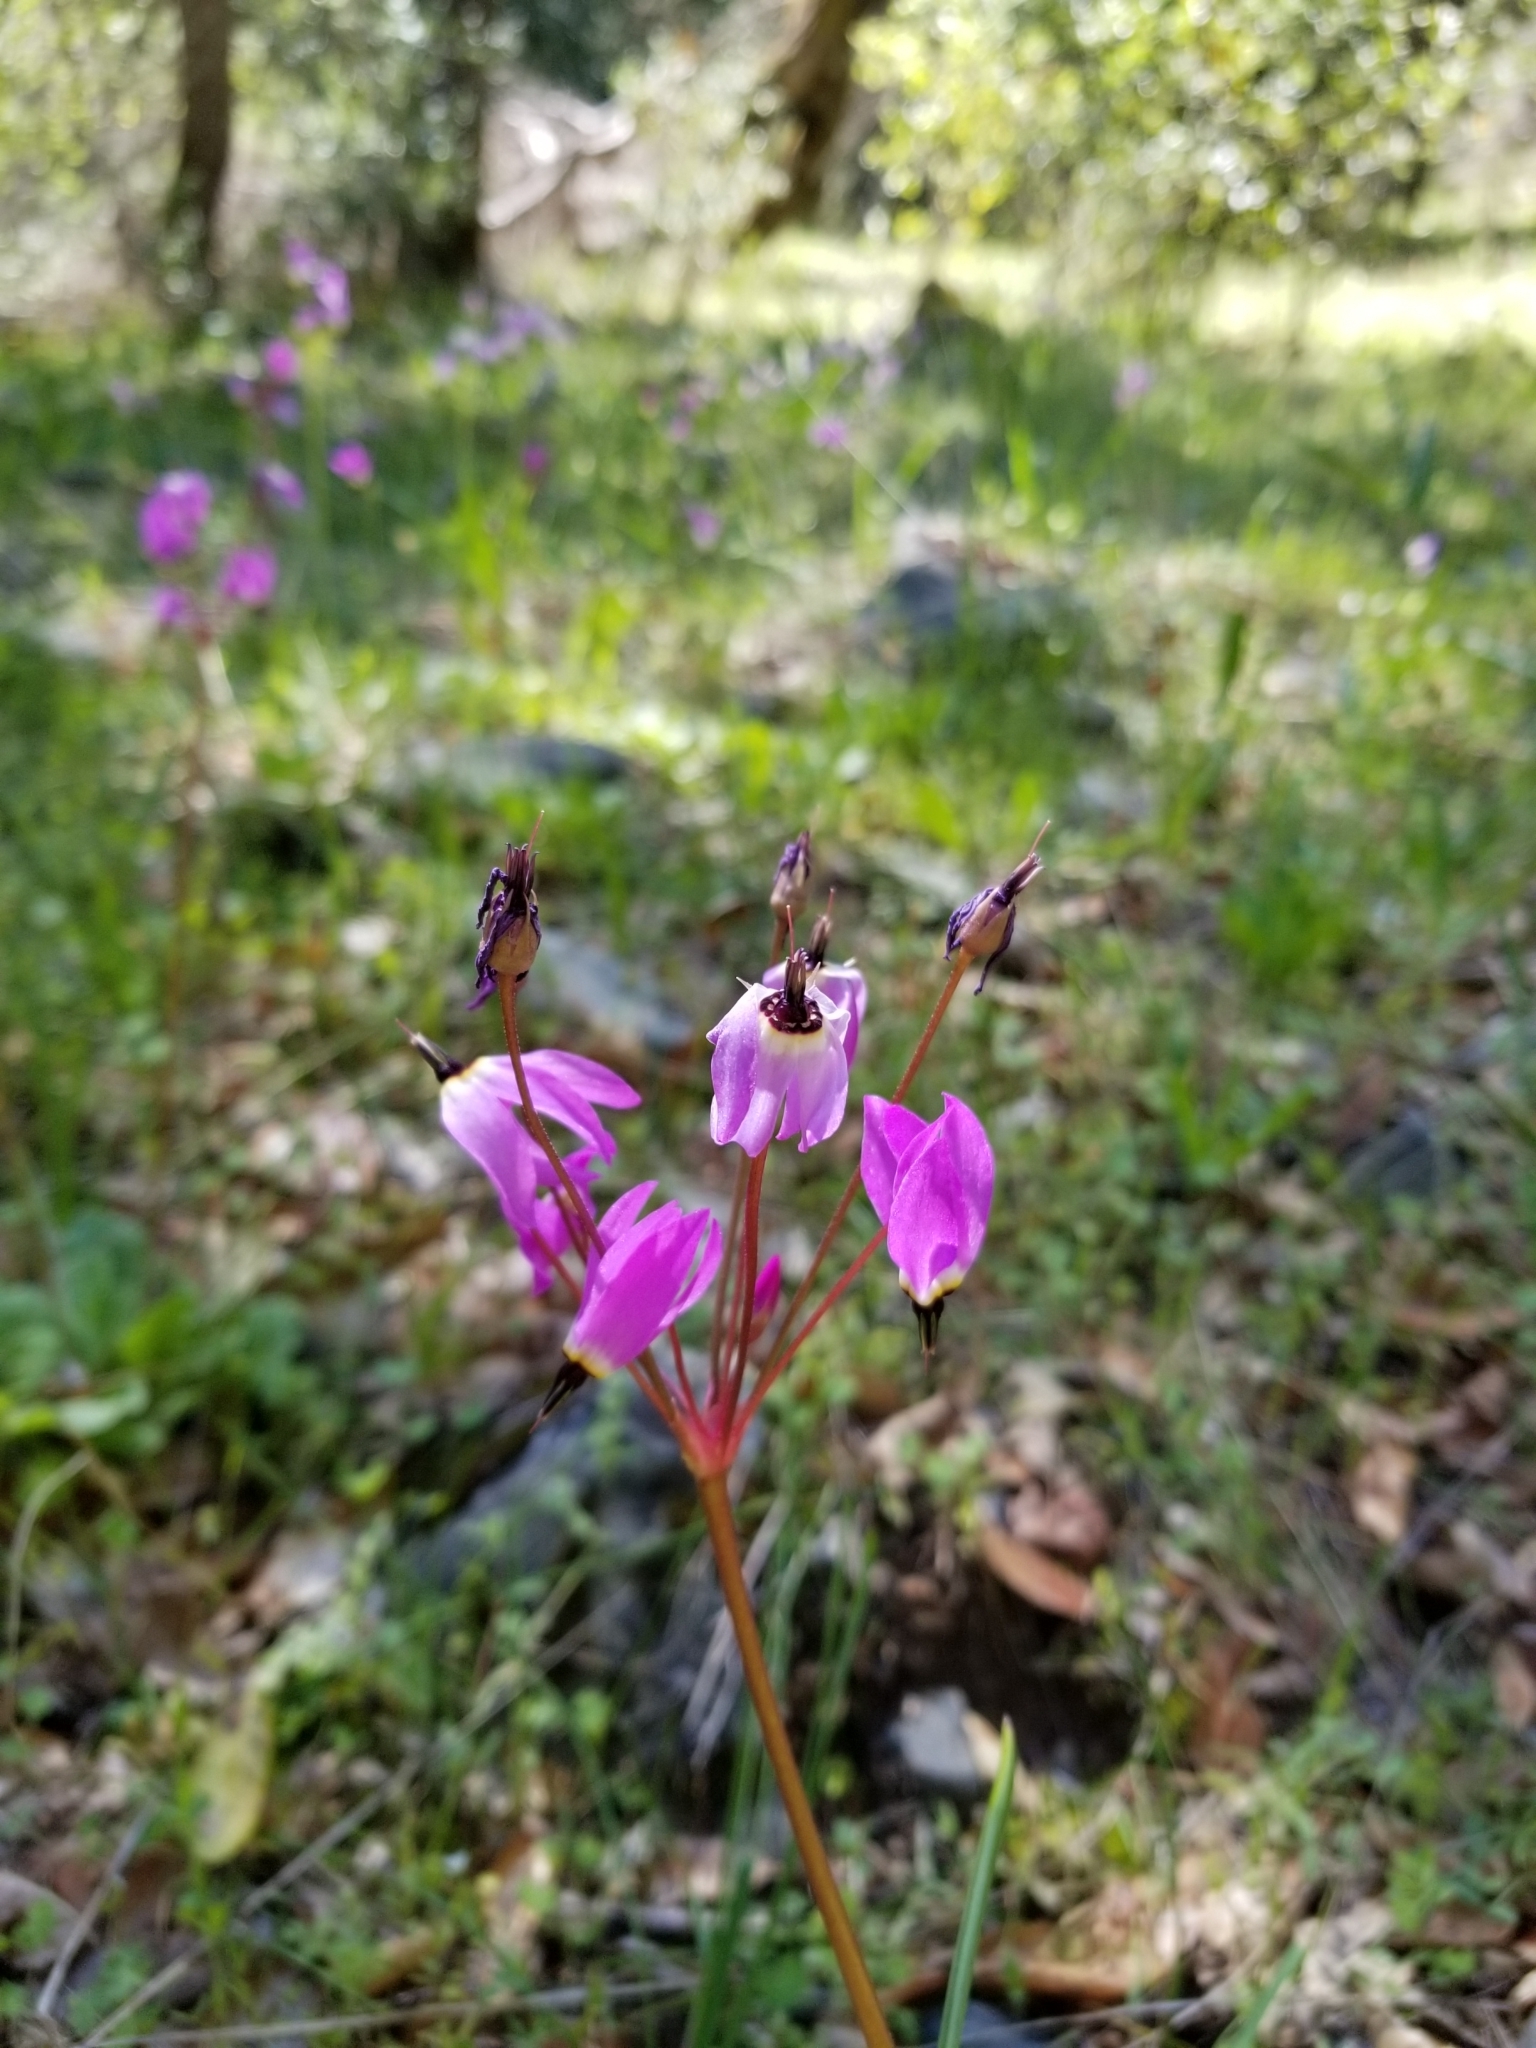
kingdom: Plantae
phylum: Tracheophyta
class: Magnoliopsida
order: Ericales
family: Primulaceae
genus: Dodecatheon
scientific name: Dodecatheon hendersonii
